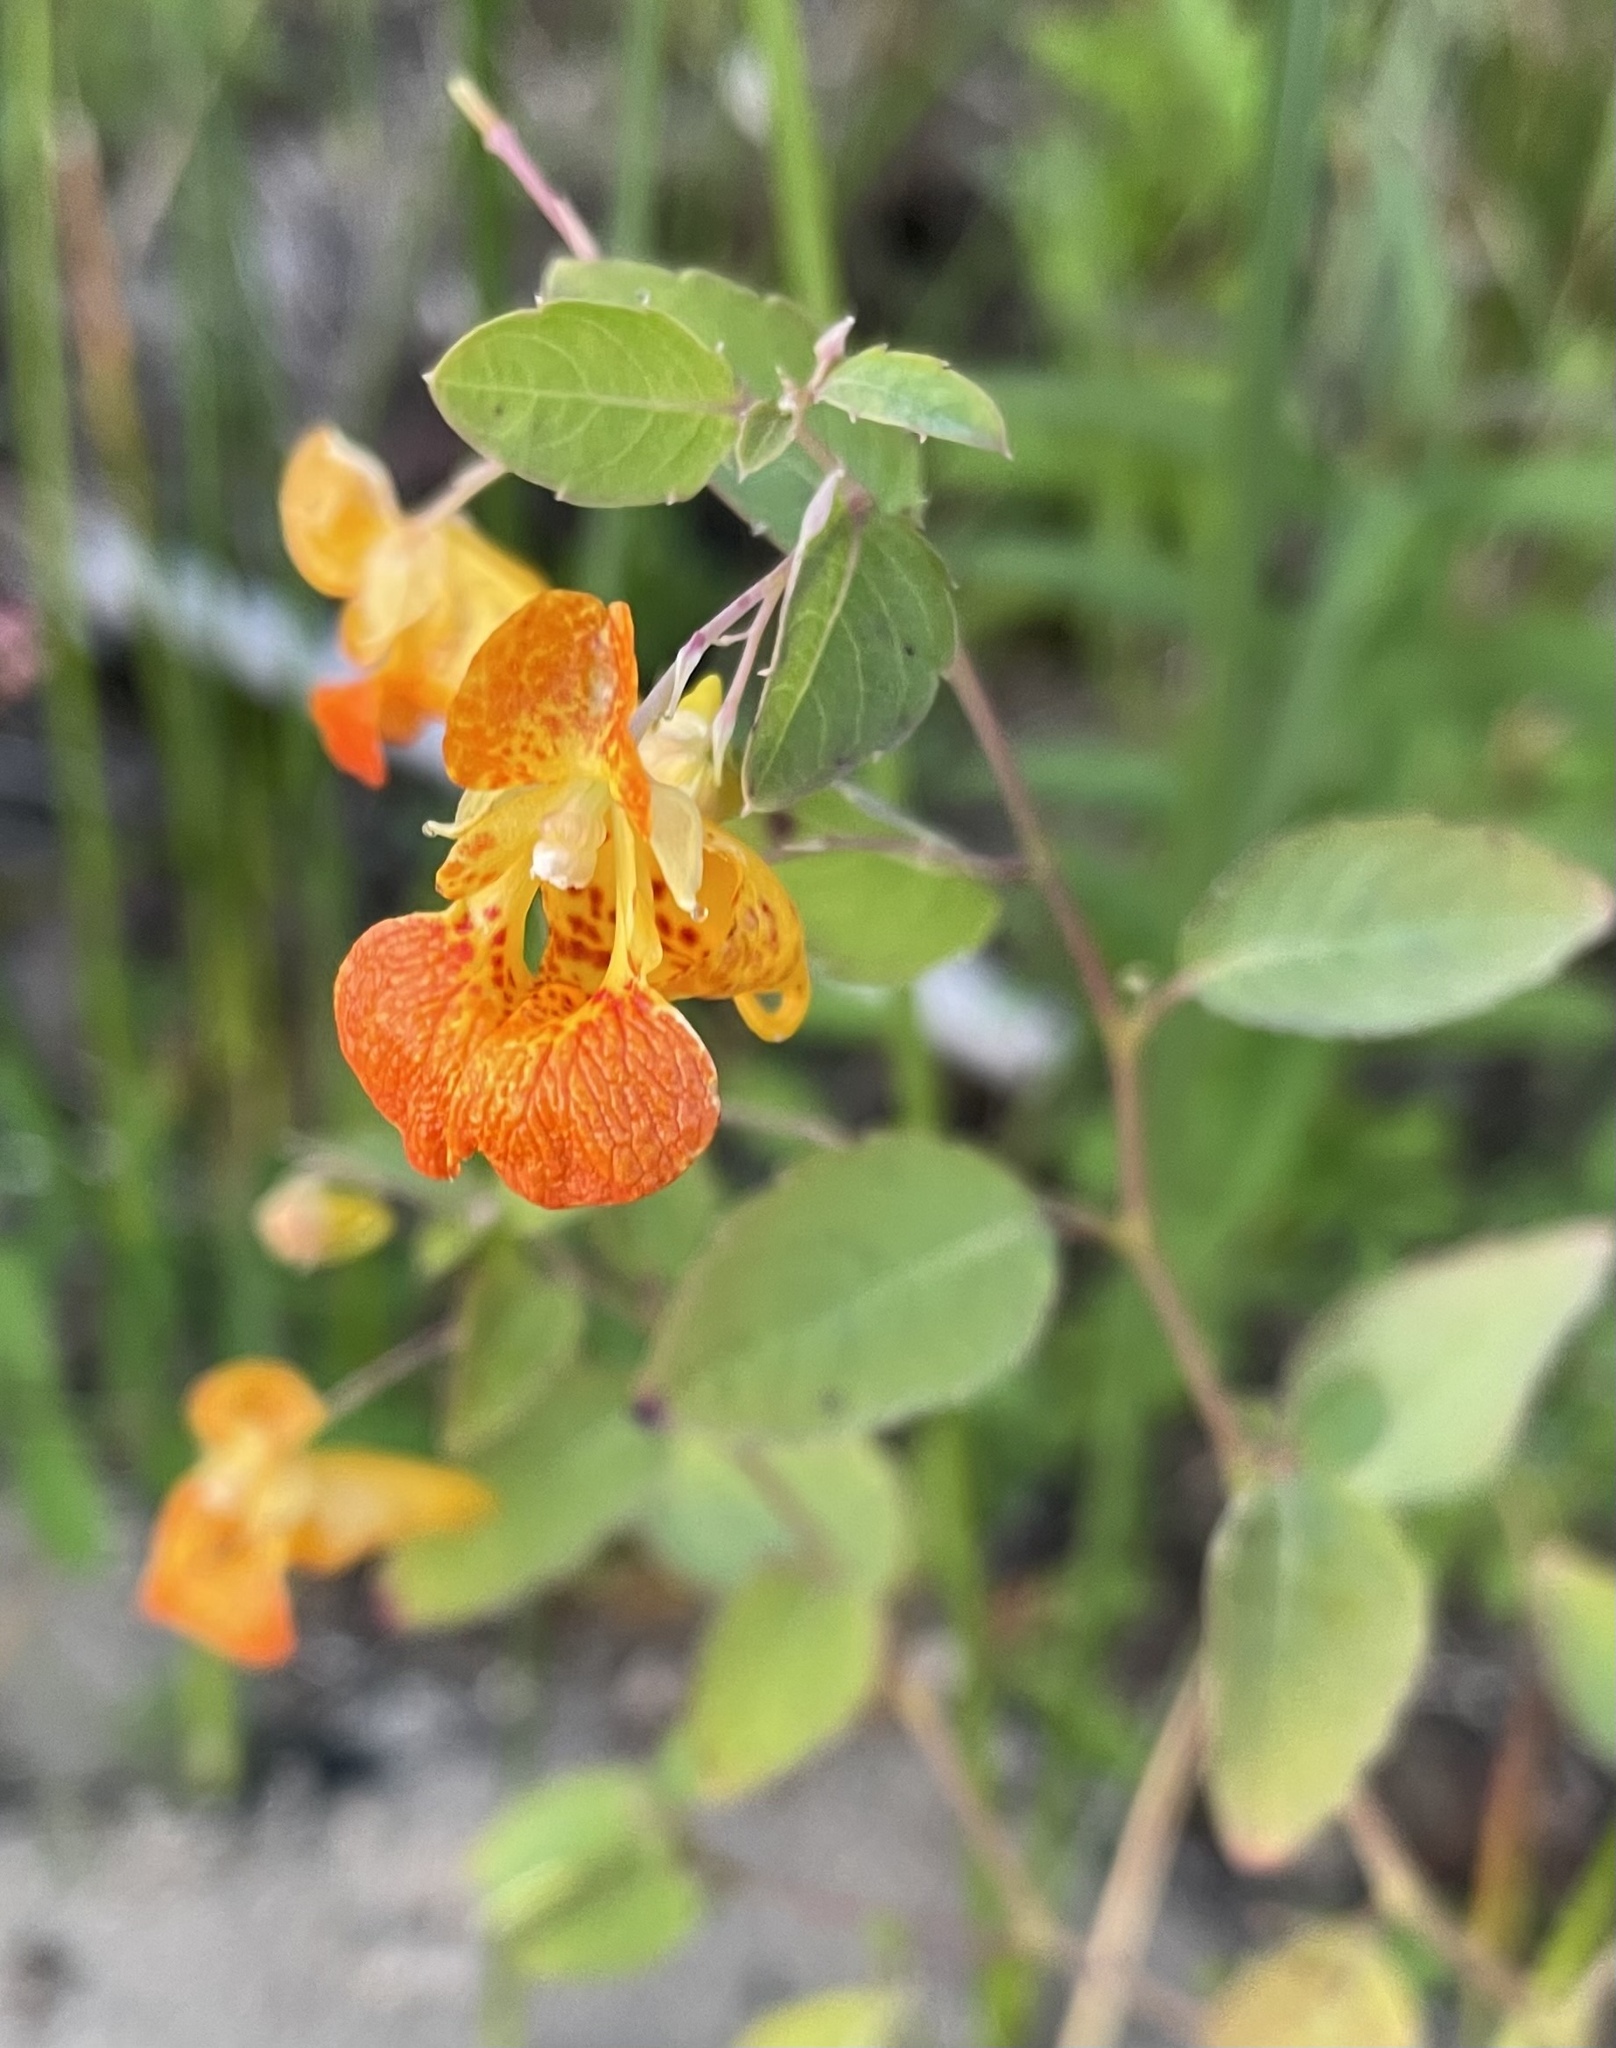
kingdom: Plantae
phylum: Tracheophyta
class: Magnoliopsida
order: Ericales
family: Balsaminaceae
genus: Impatiens
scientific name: Impatiens capensis
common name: Orange balsam
